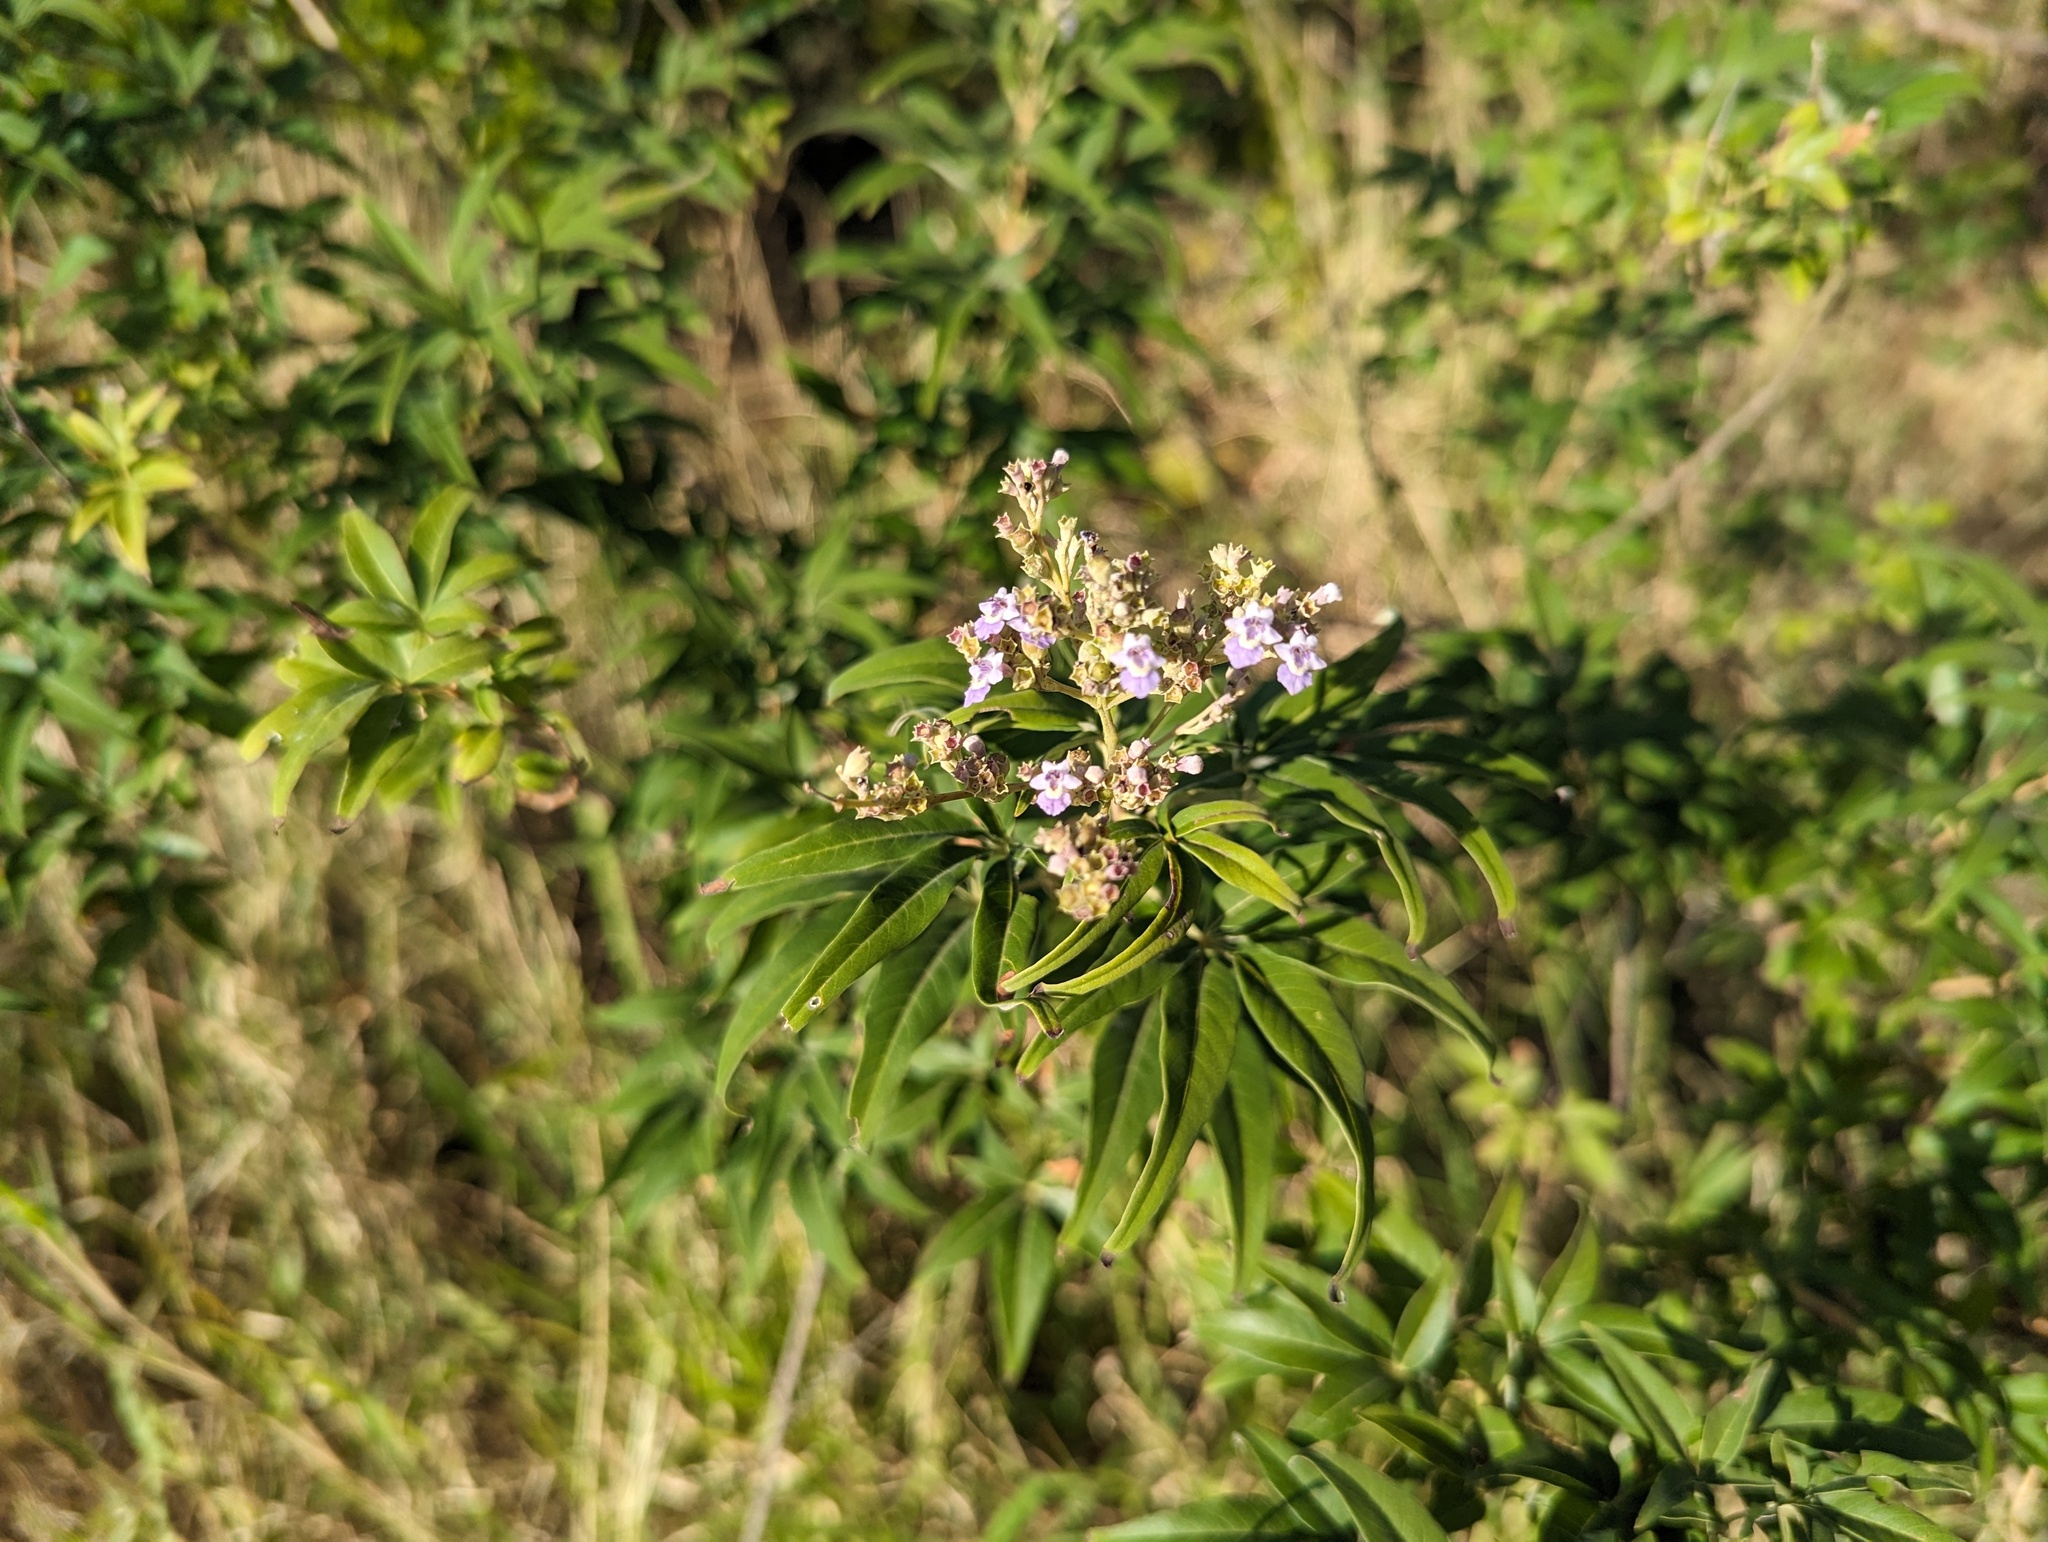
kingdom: Plantae
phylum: Tracheophyta
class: Magnoliopsida
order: Lamiales
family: Lamiaceae
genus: Vitex
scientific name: Vitex negundo
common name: Chinese chastetree
